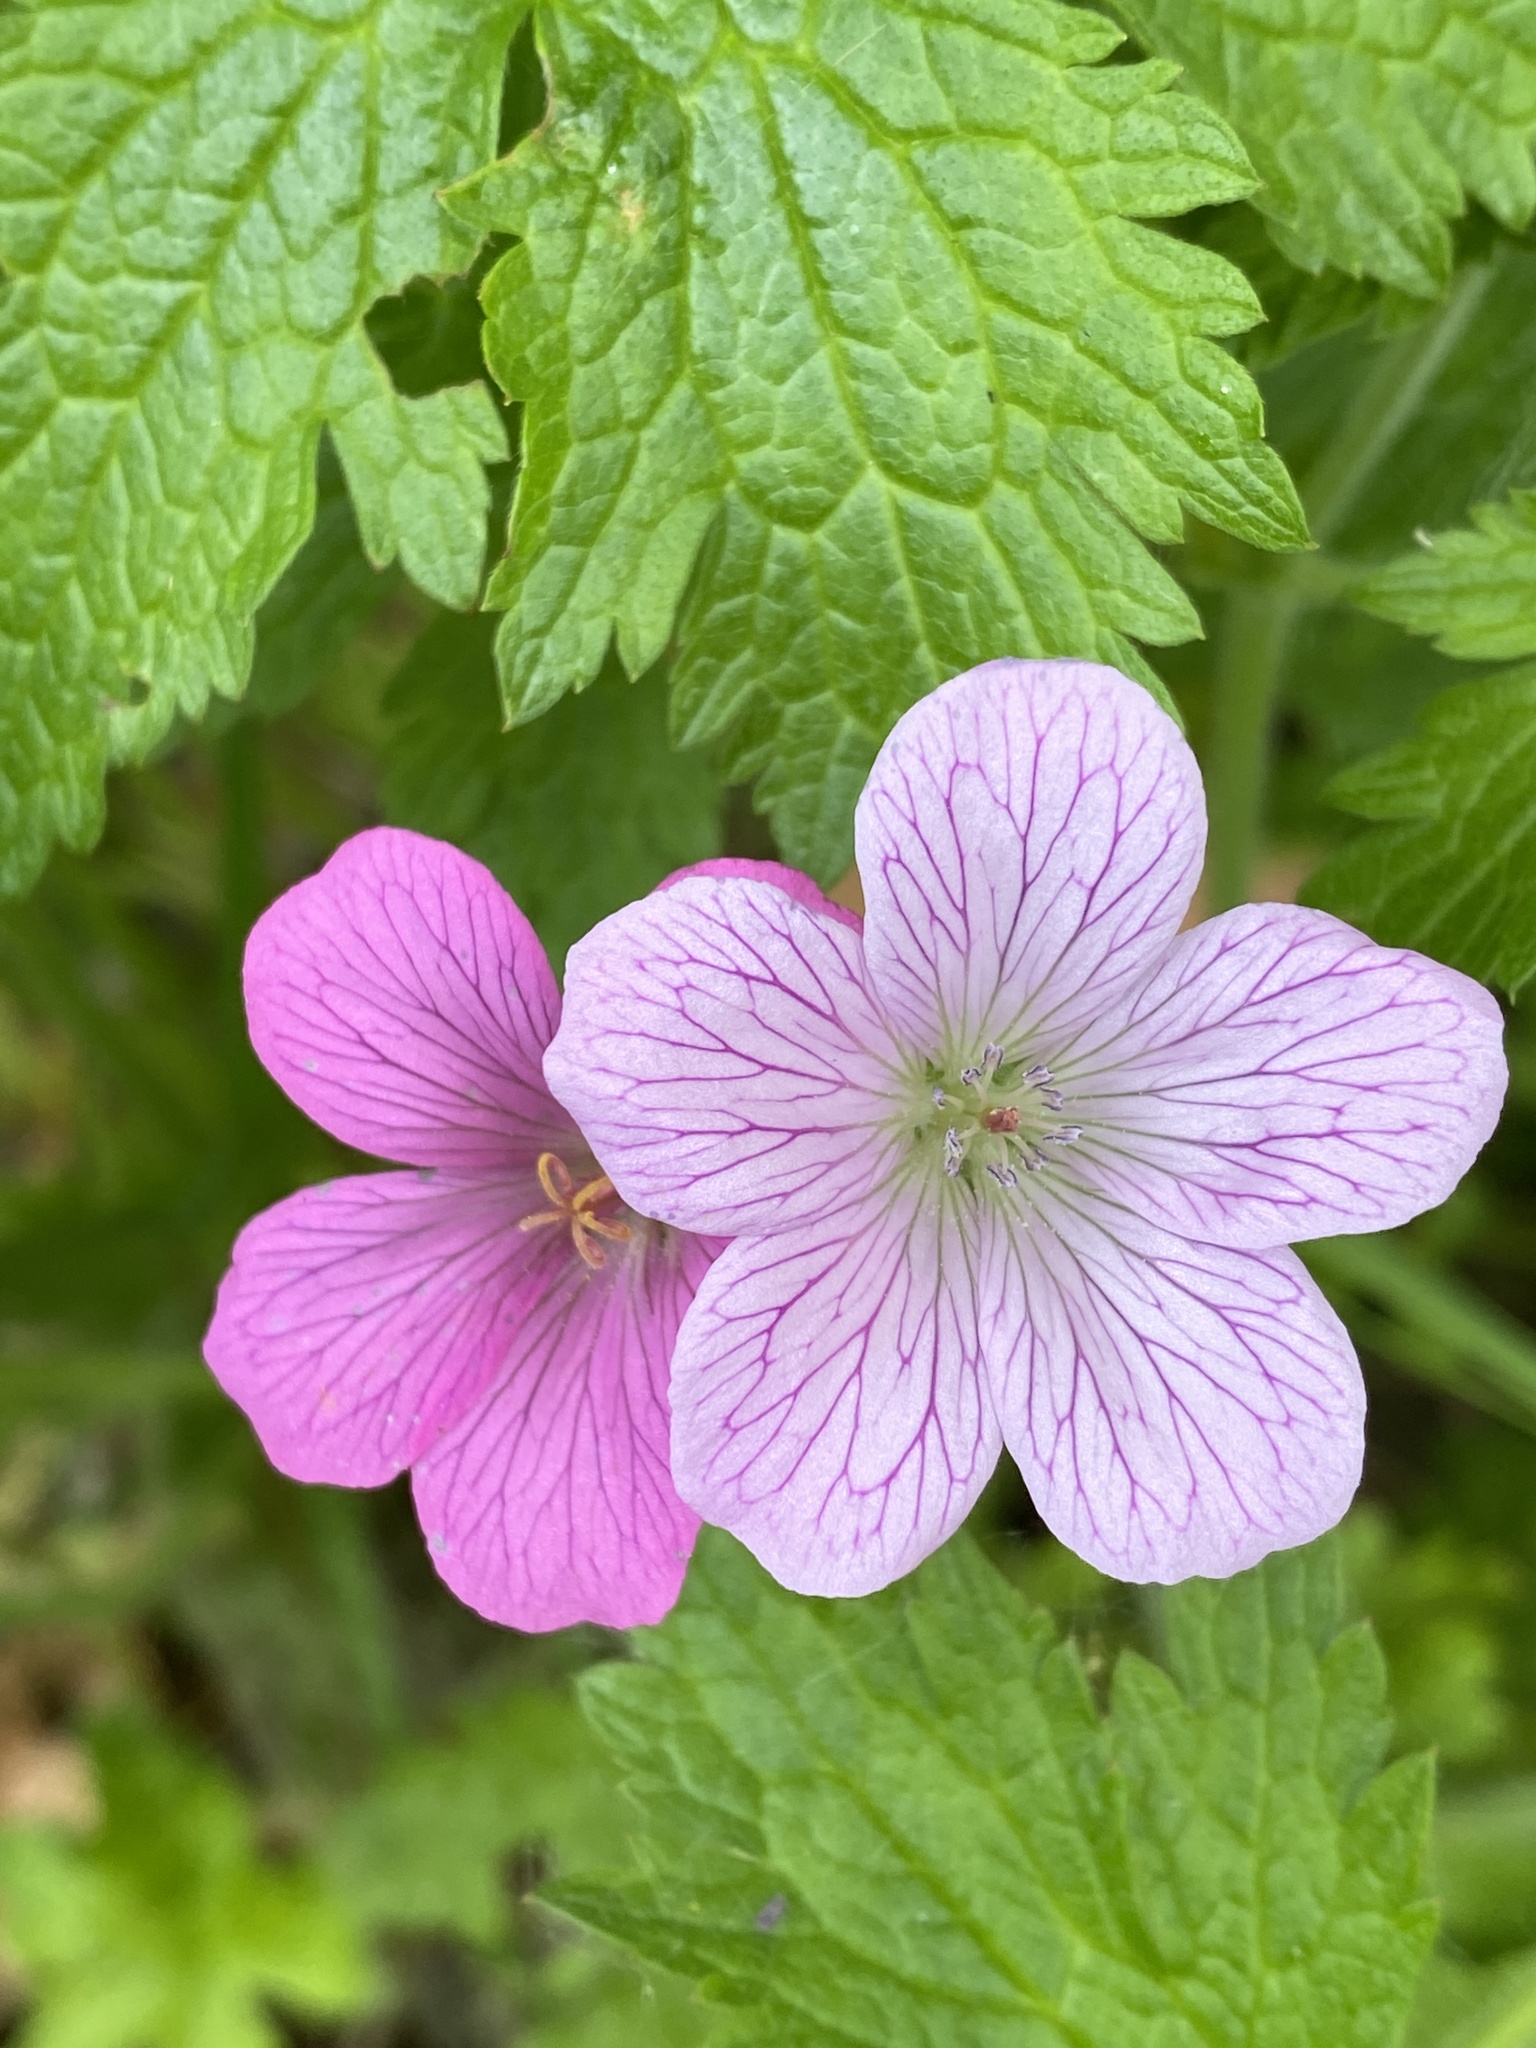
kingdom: Plantae
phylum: Tracheophyta
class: Magnoliopsida
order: Geraniales
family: Geraniaceae
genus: Geranium
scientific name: Geranium oxonianum
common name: Druce's crane's-bill
